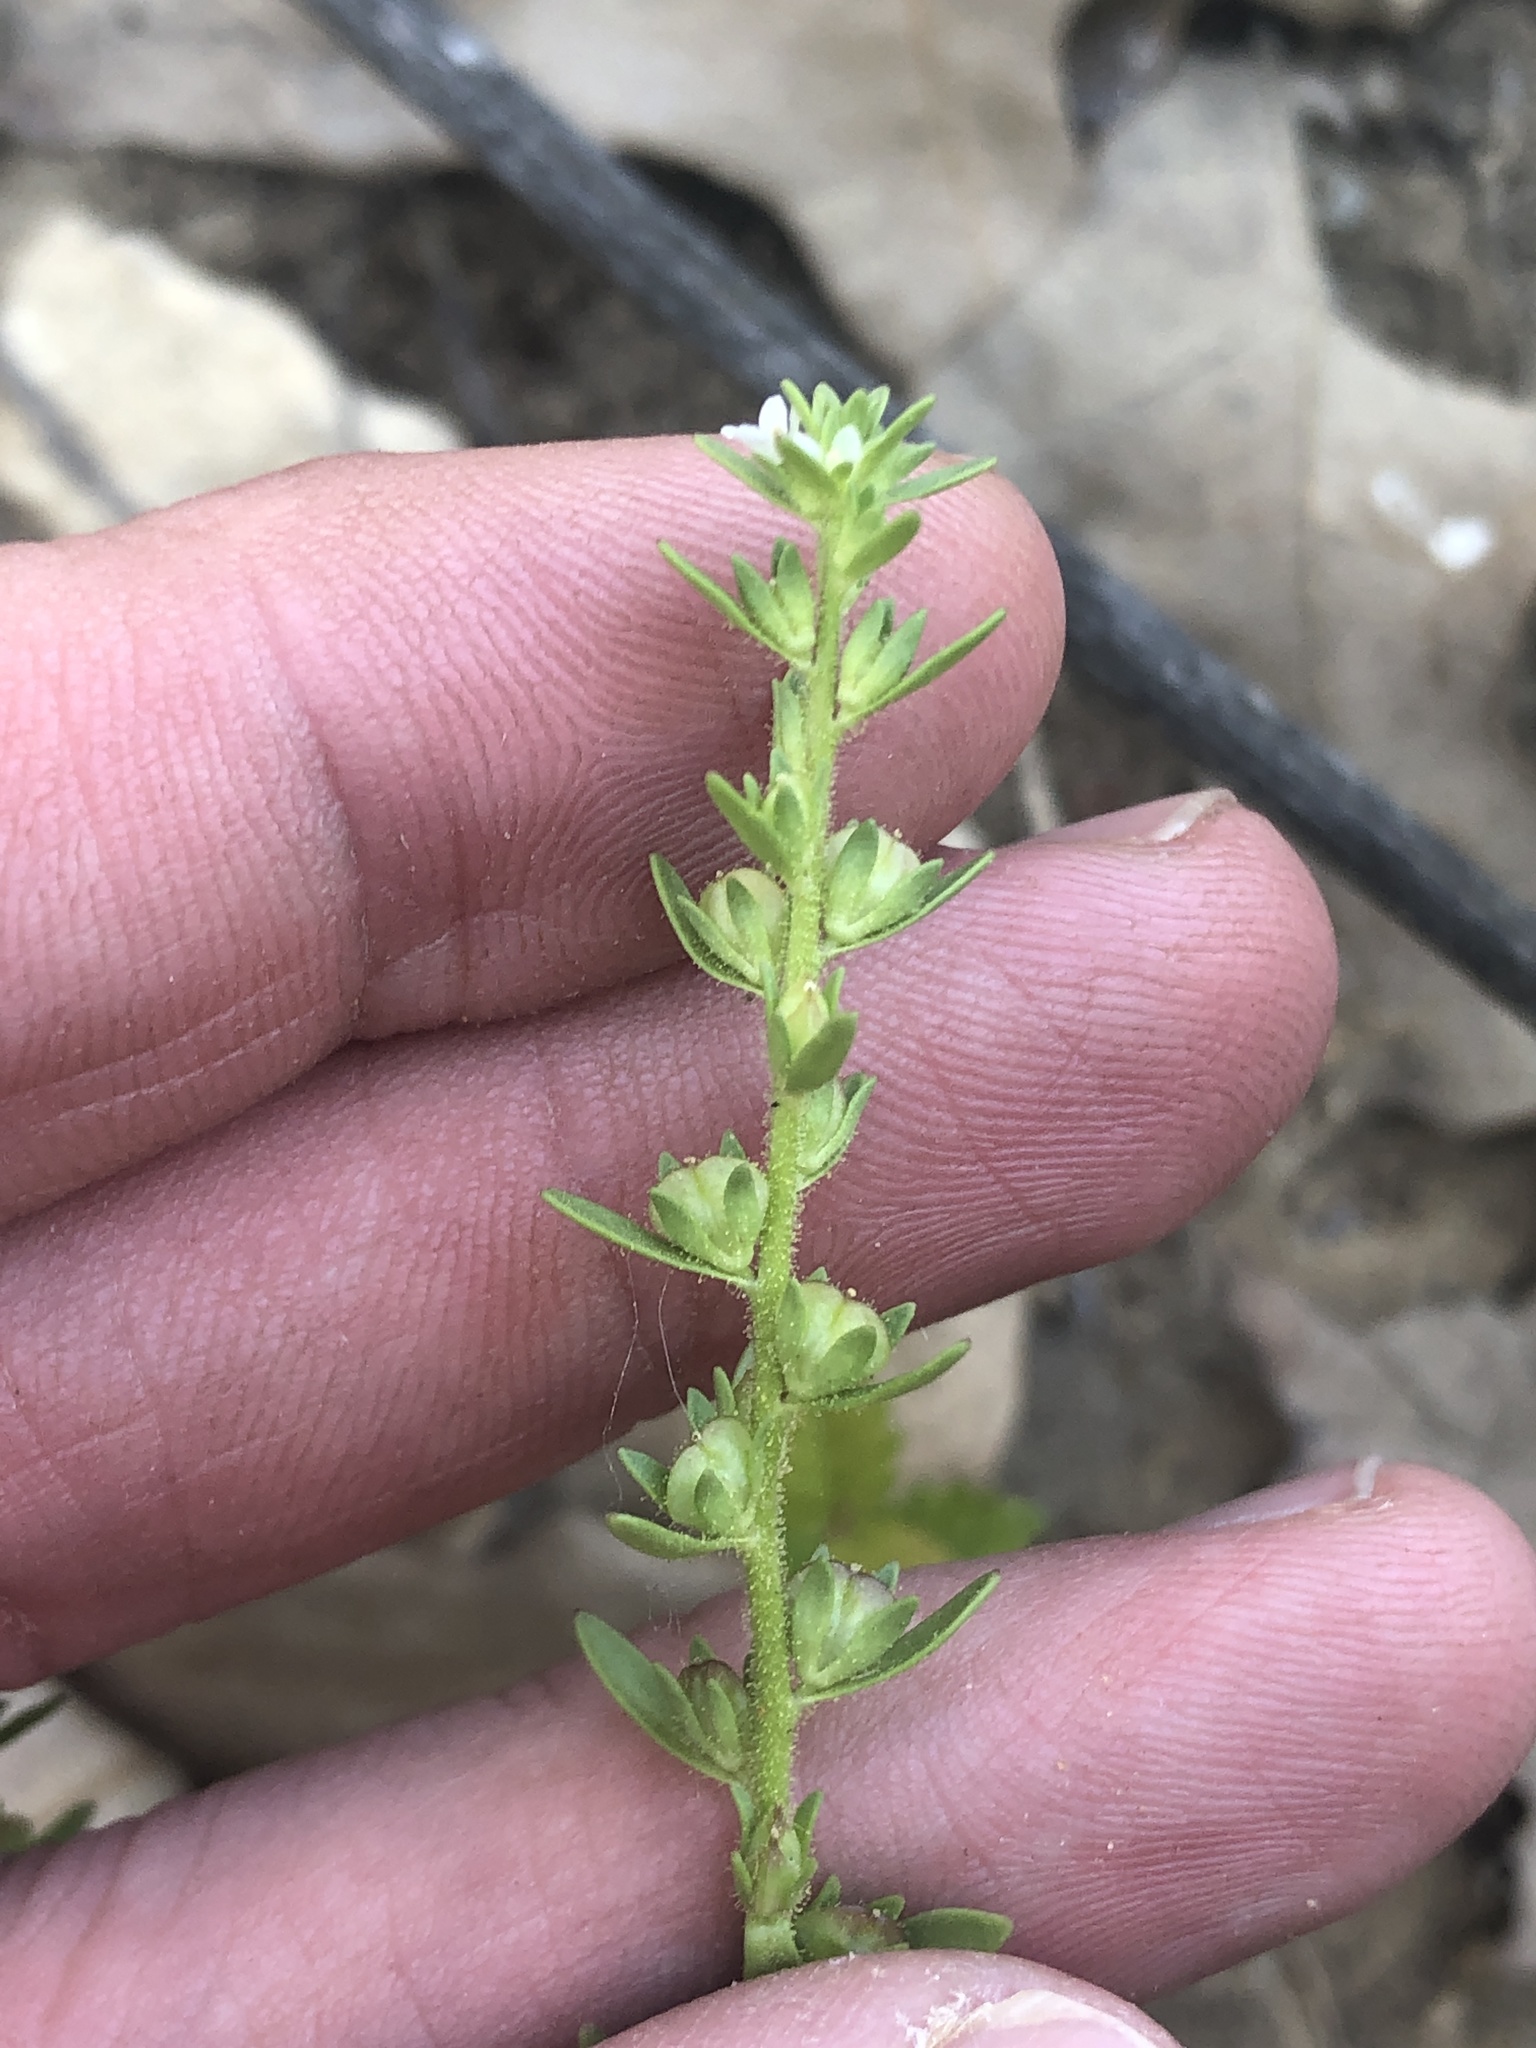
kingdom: Plantae
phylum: Tracheophyta
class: Magnoliopsida
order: Lamiales
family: Plantaginaceae
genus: Veronica
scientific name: Veronica peregrina
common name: Neckweed
